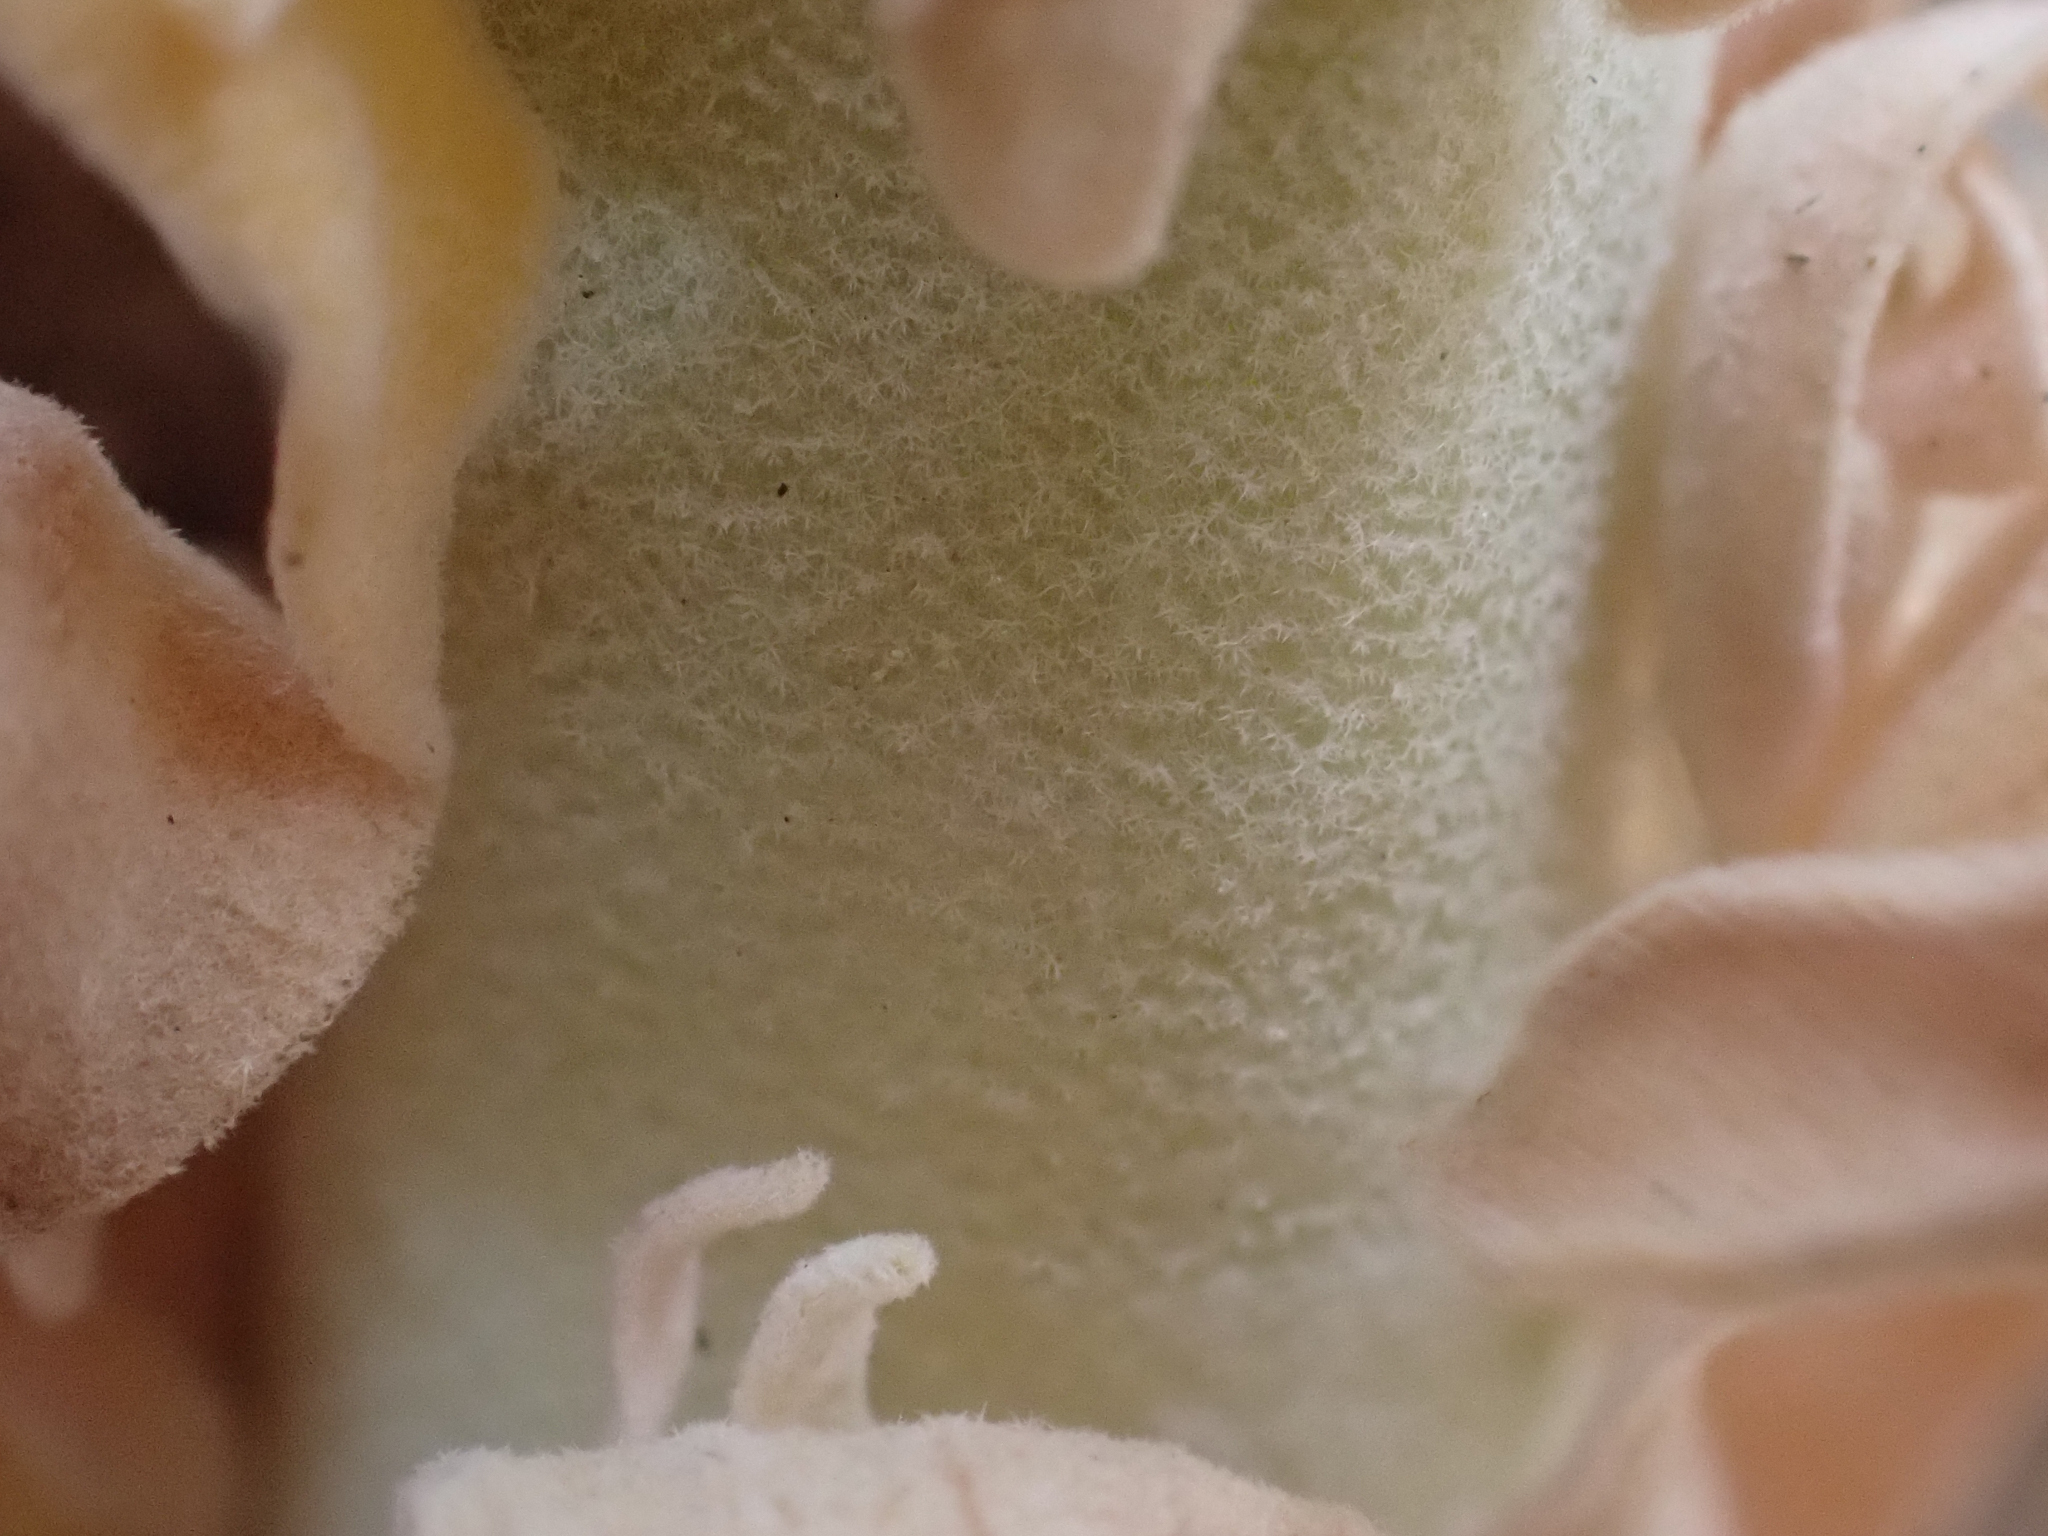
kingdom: Plantae
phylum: Tracheophyta
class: Magnoliopsida
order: Brassicales
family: Brassicaceae
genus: Boechera
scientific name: Boechera shockleyi
